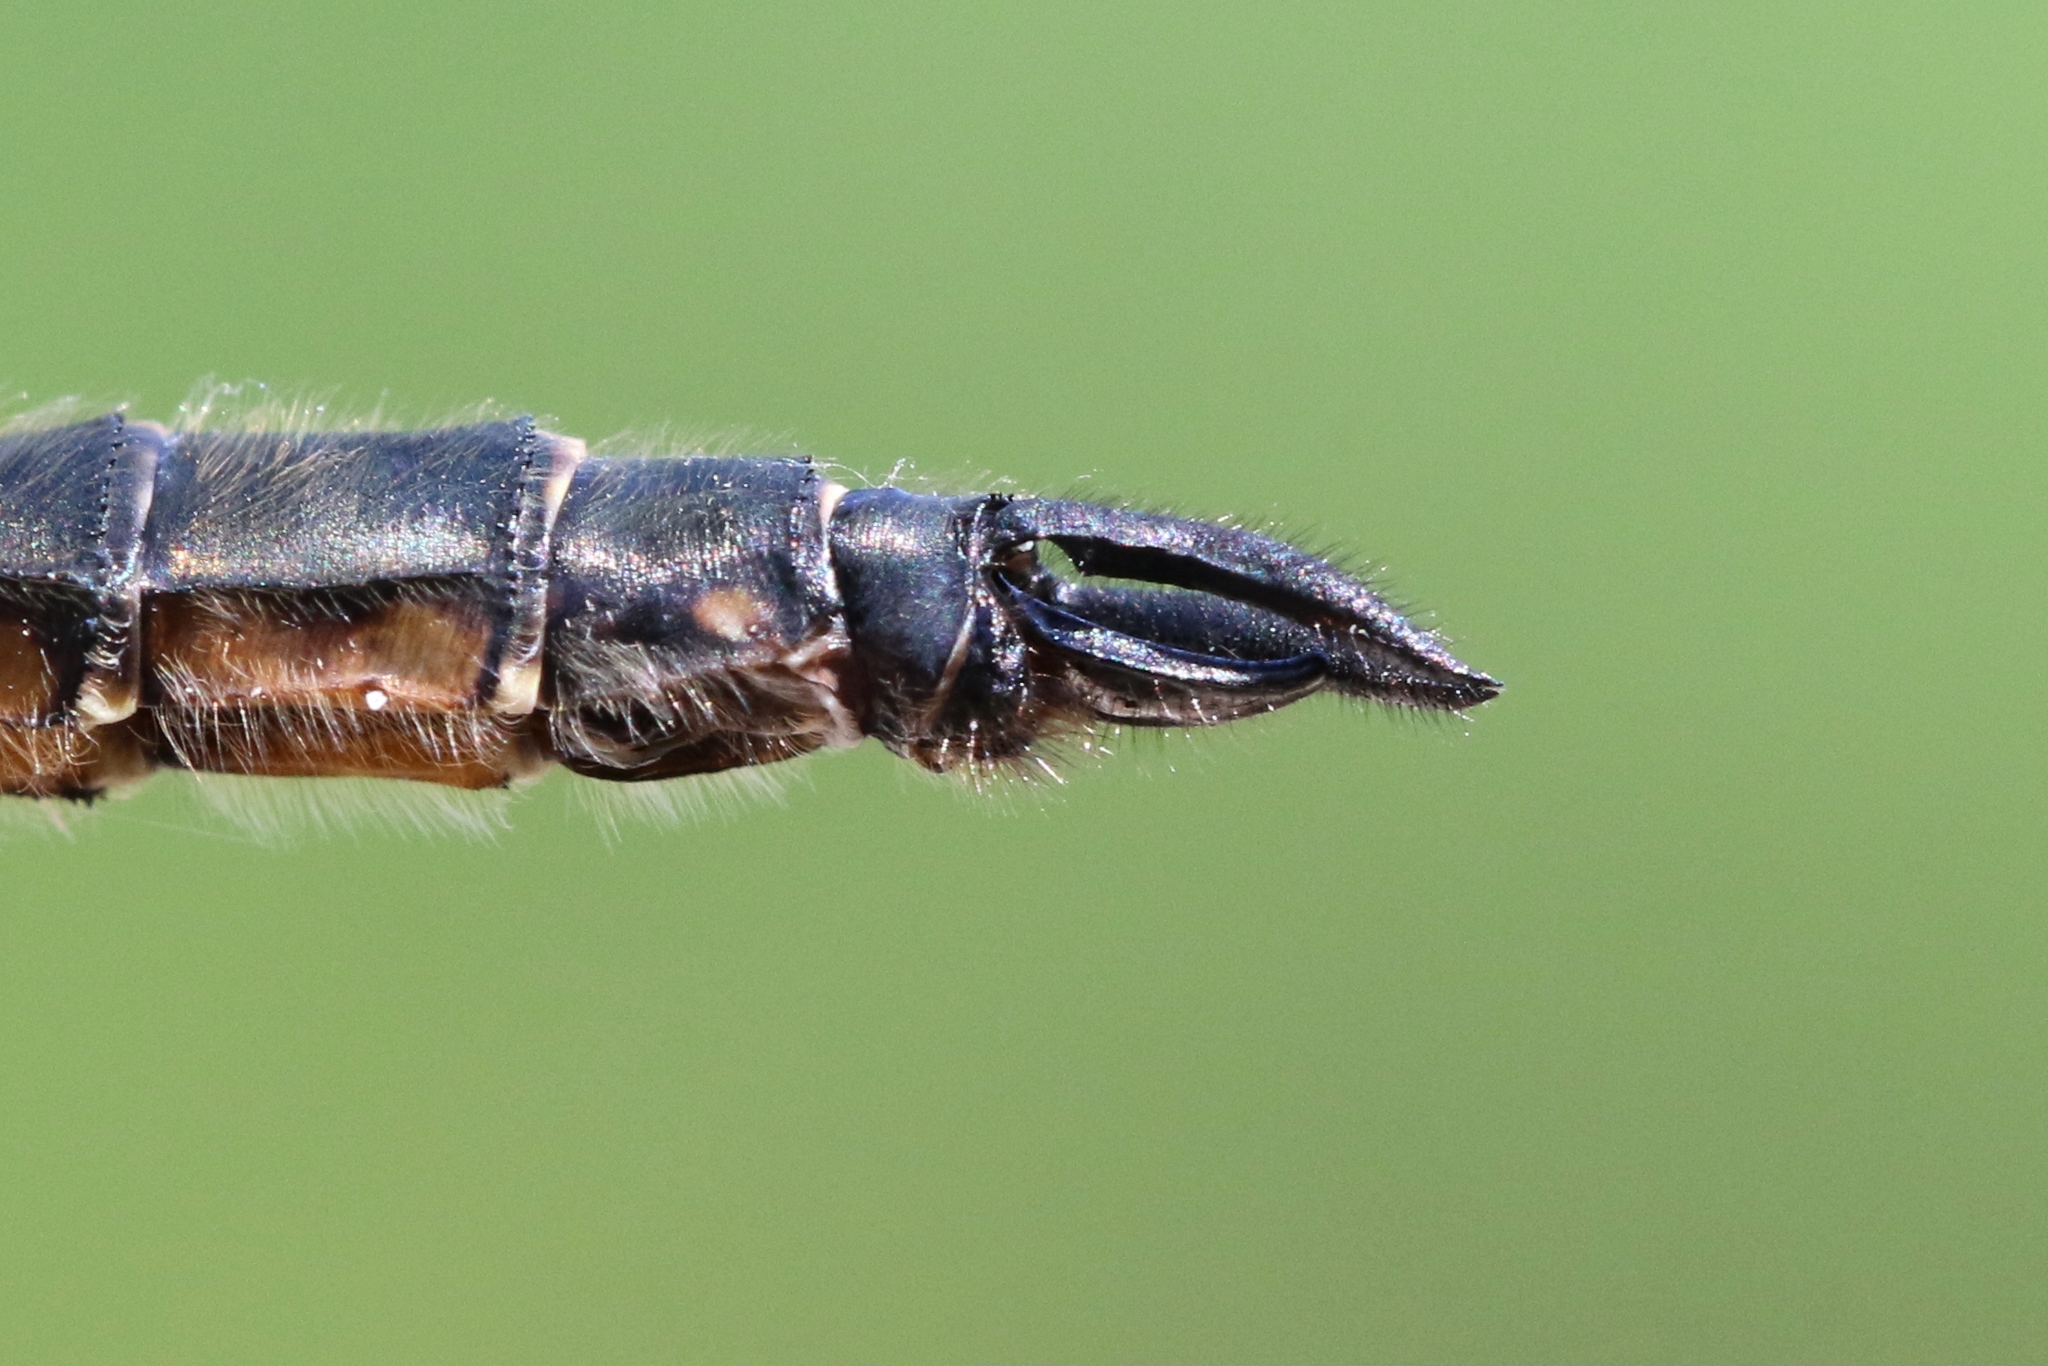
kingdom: Animalia
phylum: Arthropoda
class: Insecta
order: Odonata
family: Corduliidae
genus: Somatochlora
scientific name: Somatochlora minor
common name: Ocellated emerald
